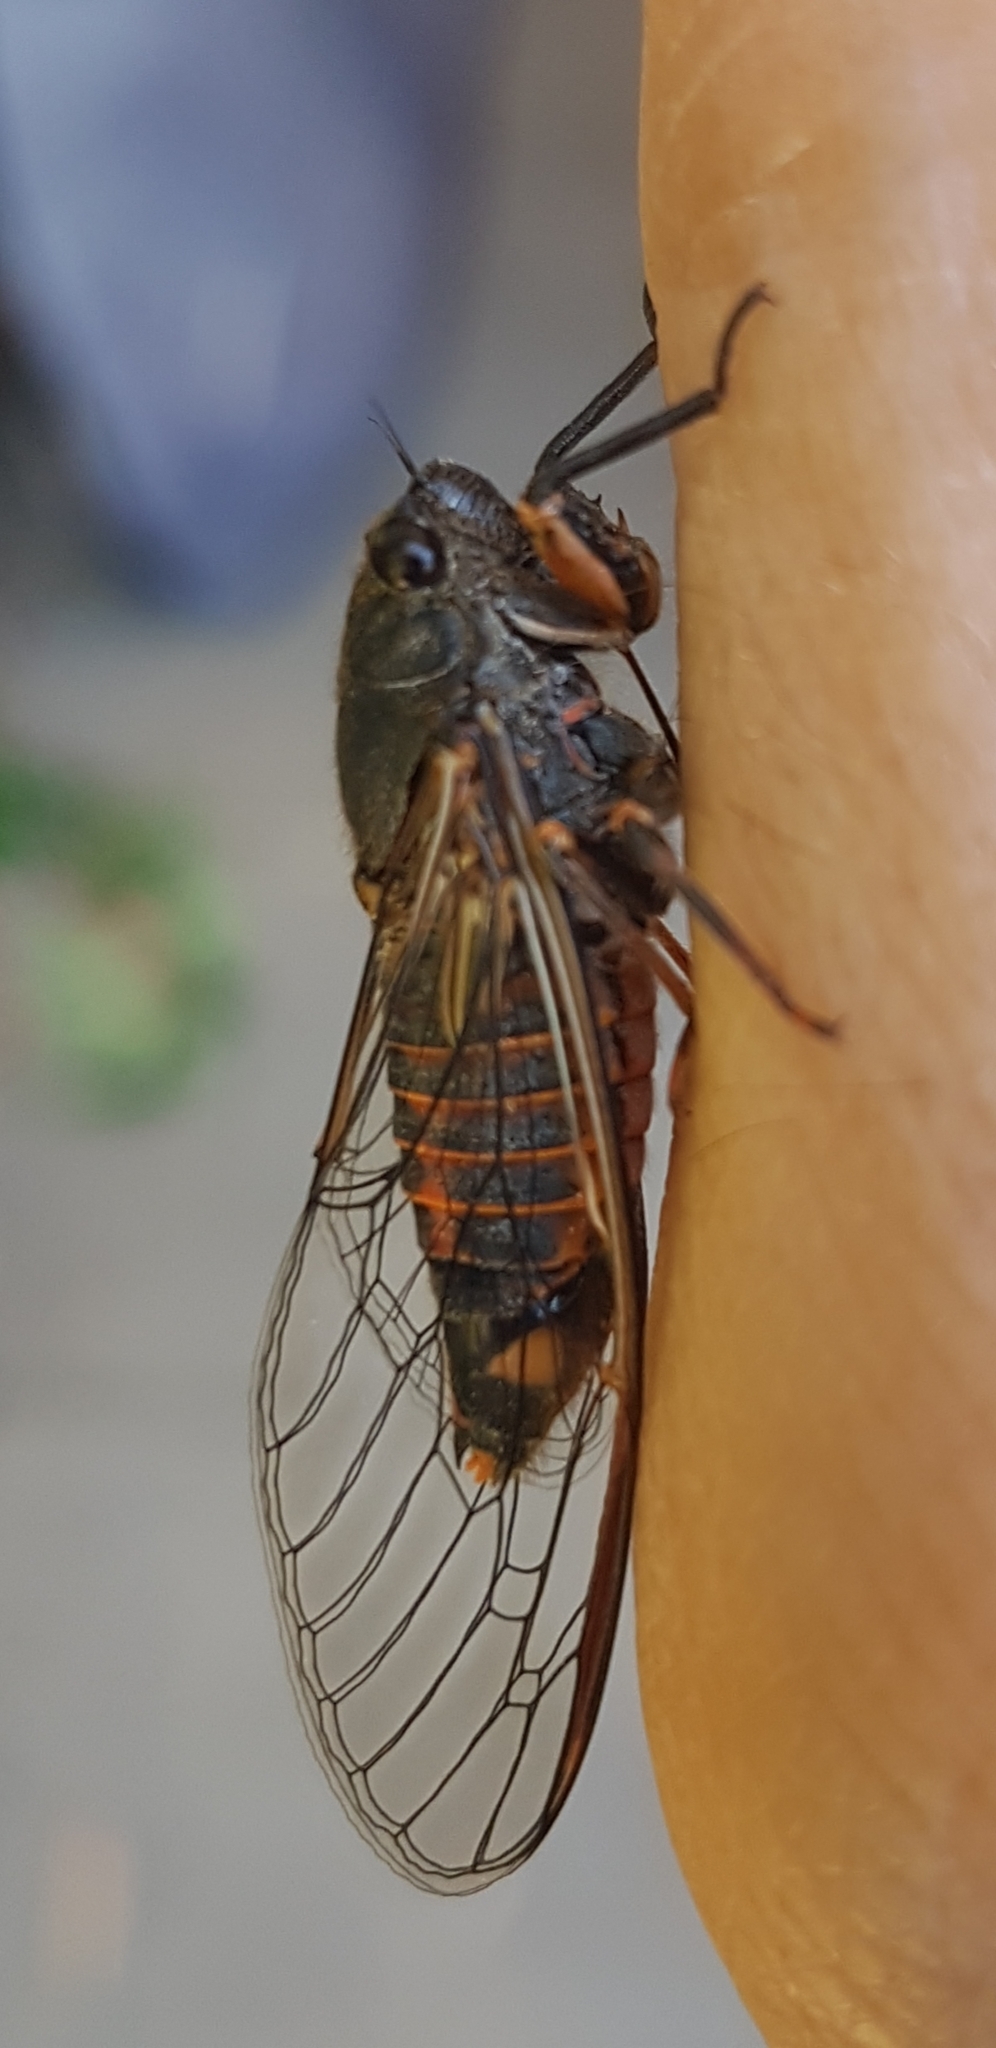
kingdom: Animalia
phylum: Arthropoda
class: Insecta
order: Hemiptera
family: Cicadidae
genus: Yoyetta
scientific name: Yoyetta robertsonae
